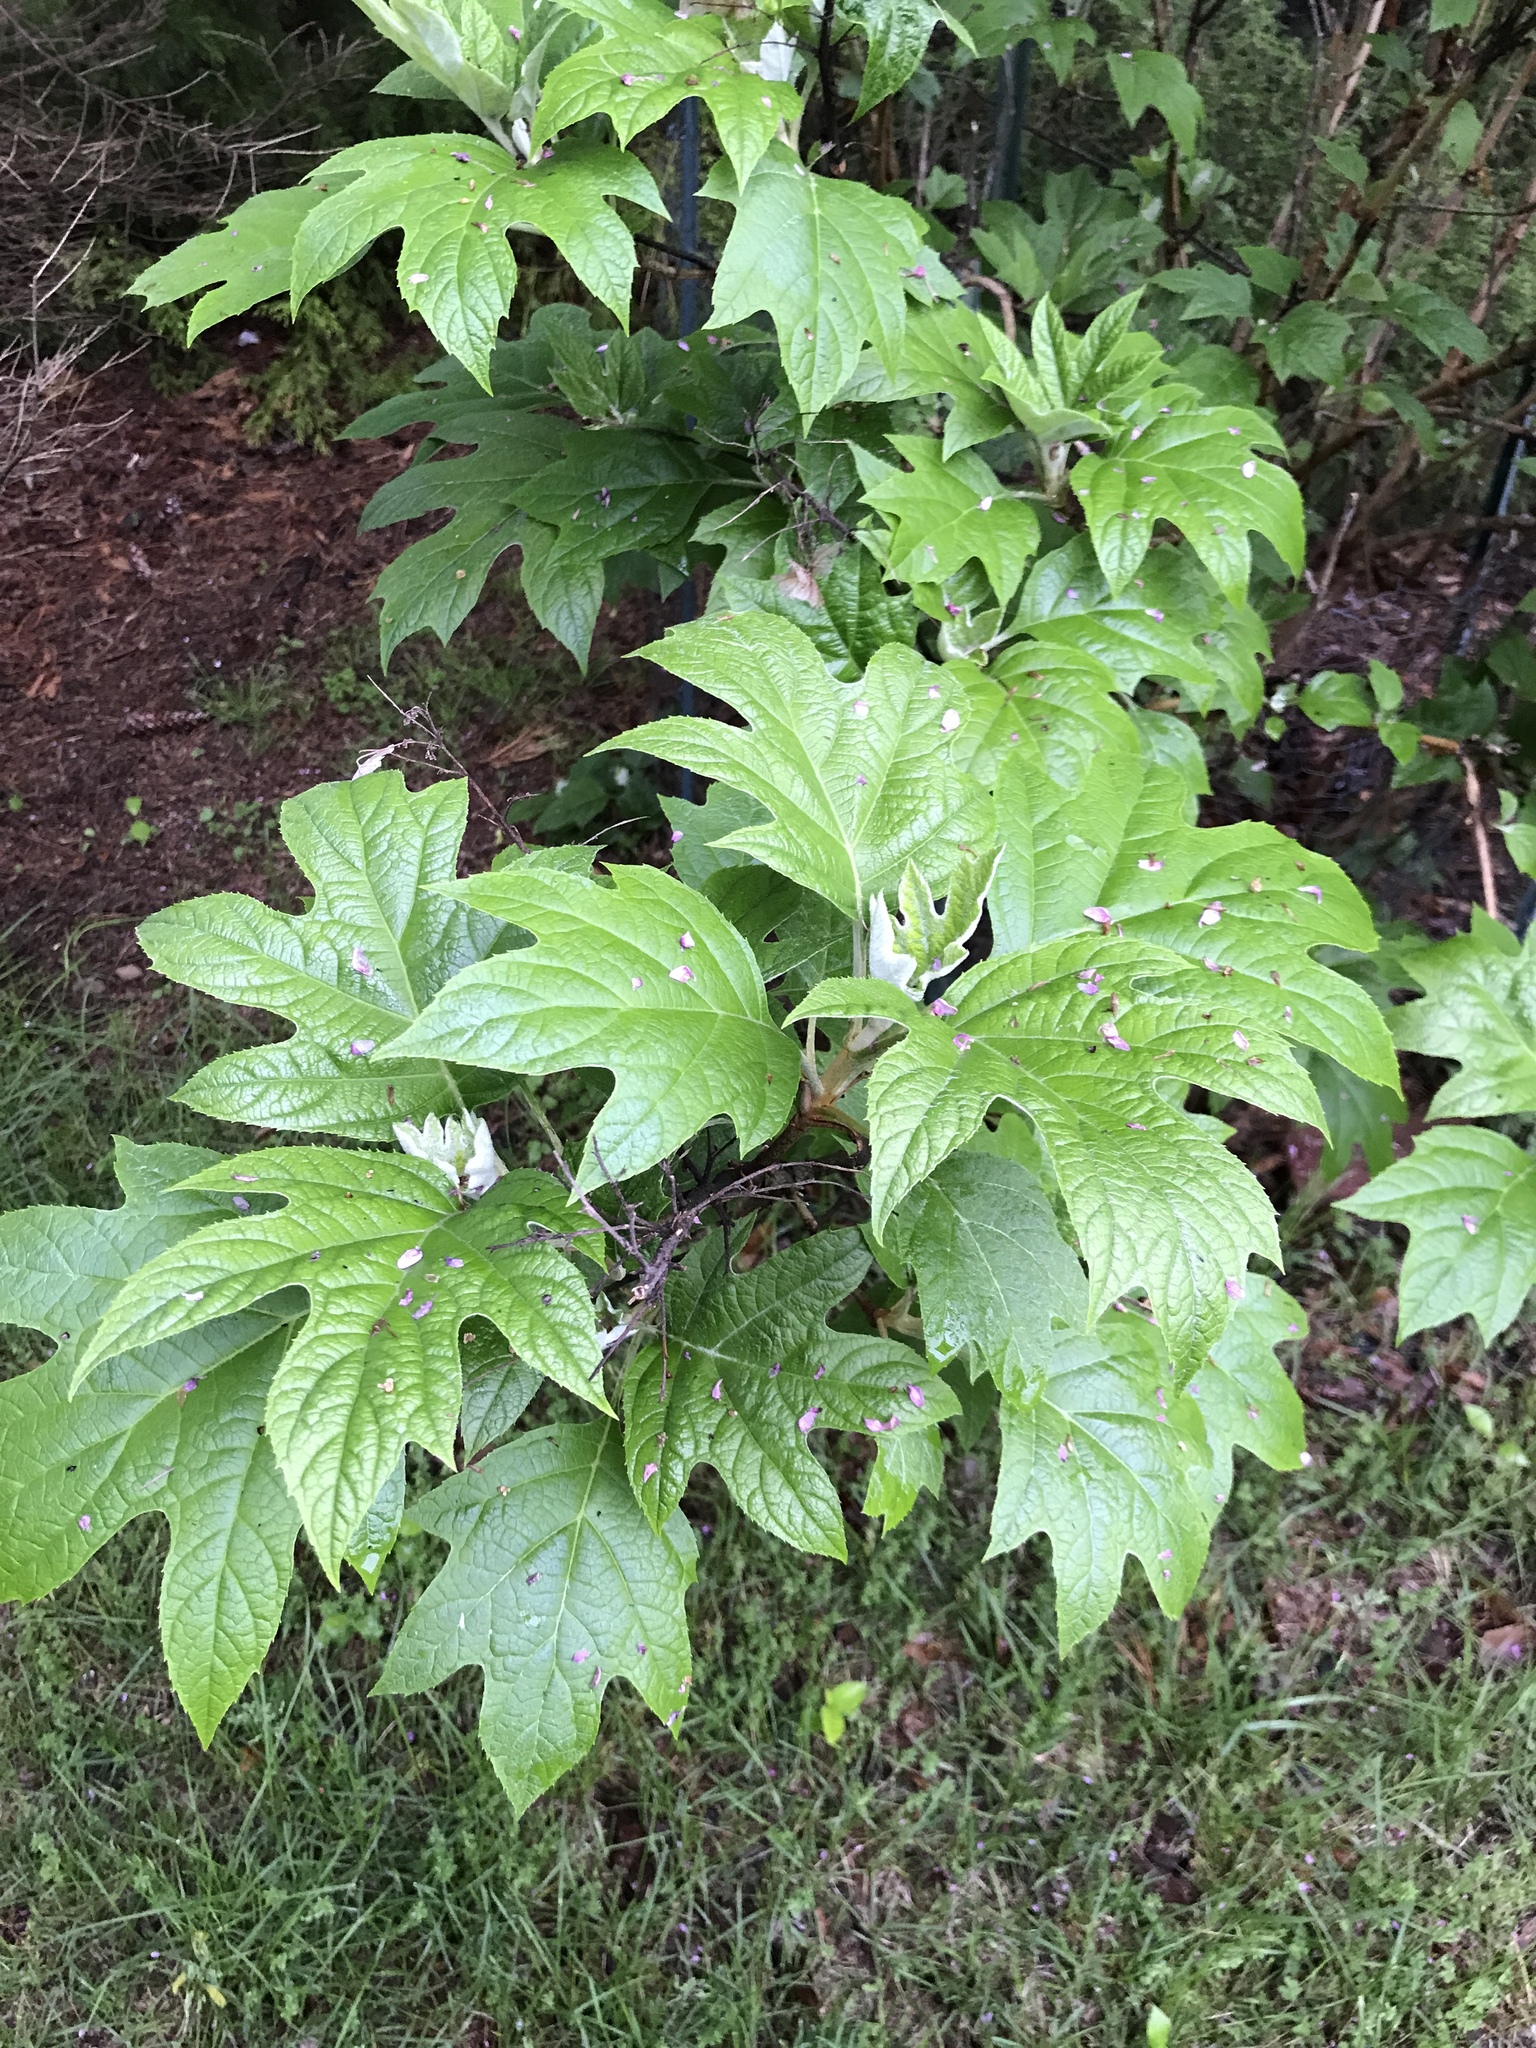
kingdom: Plantae
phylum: Tracheophyta
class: Magnoliopsida
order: Cornales
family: Hydrangeaceae
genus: Hydrangea
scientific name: Hydrangea quercifolia
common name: Oak-leaf hydrangea
